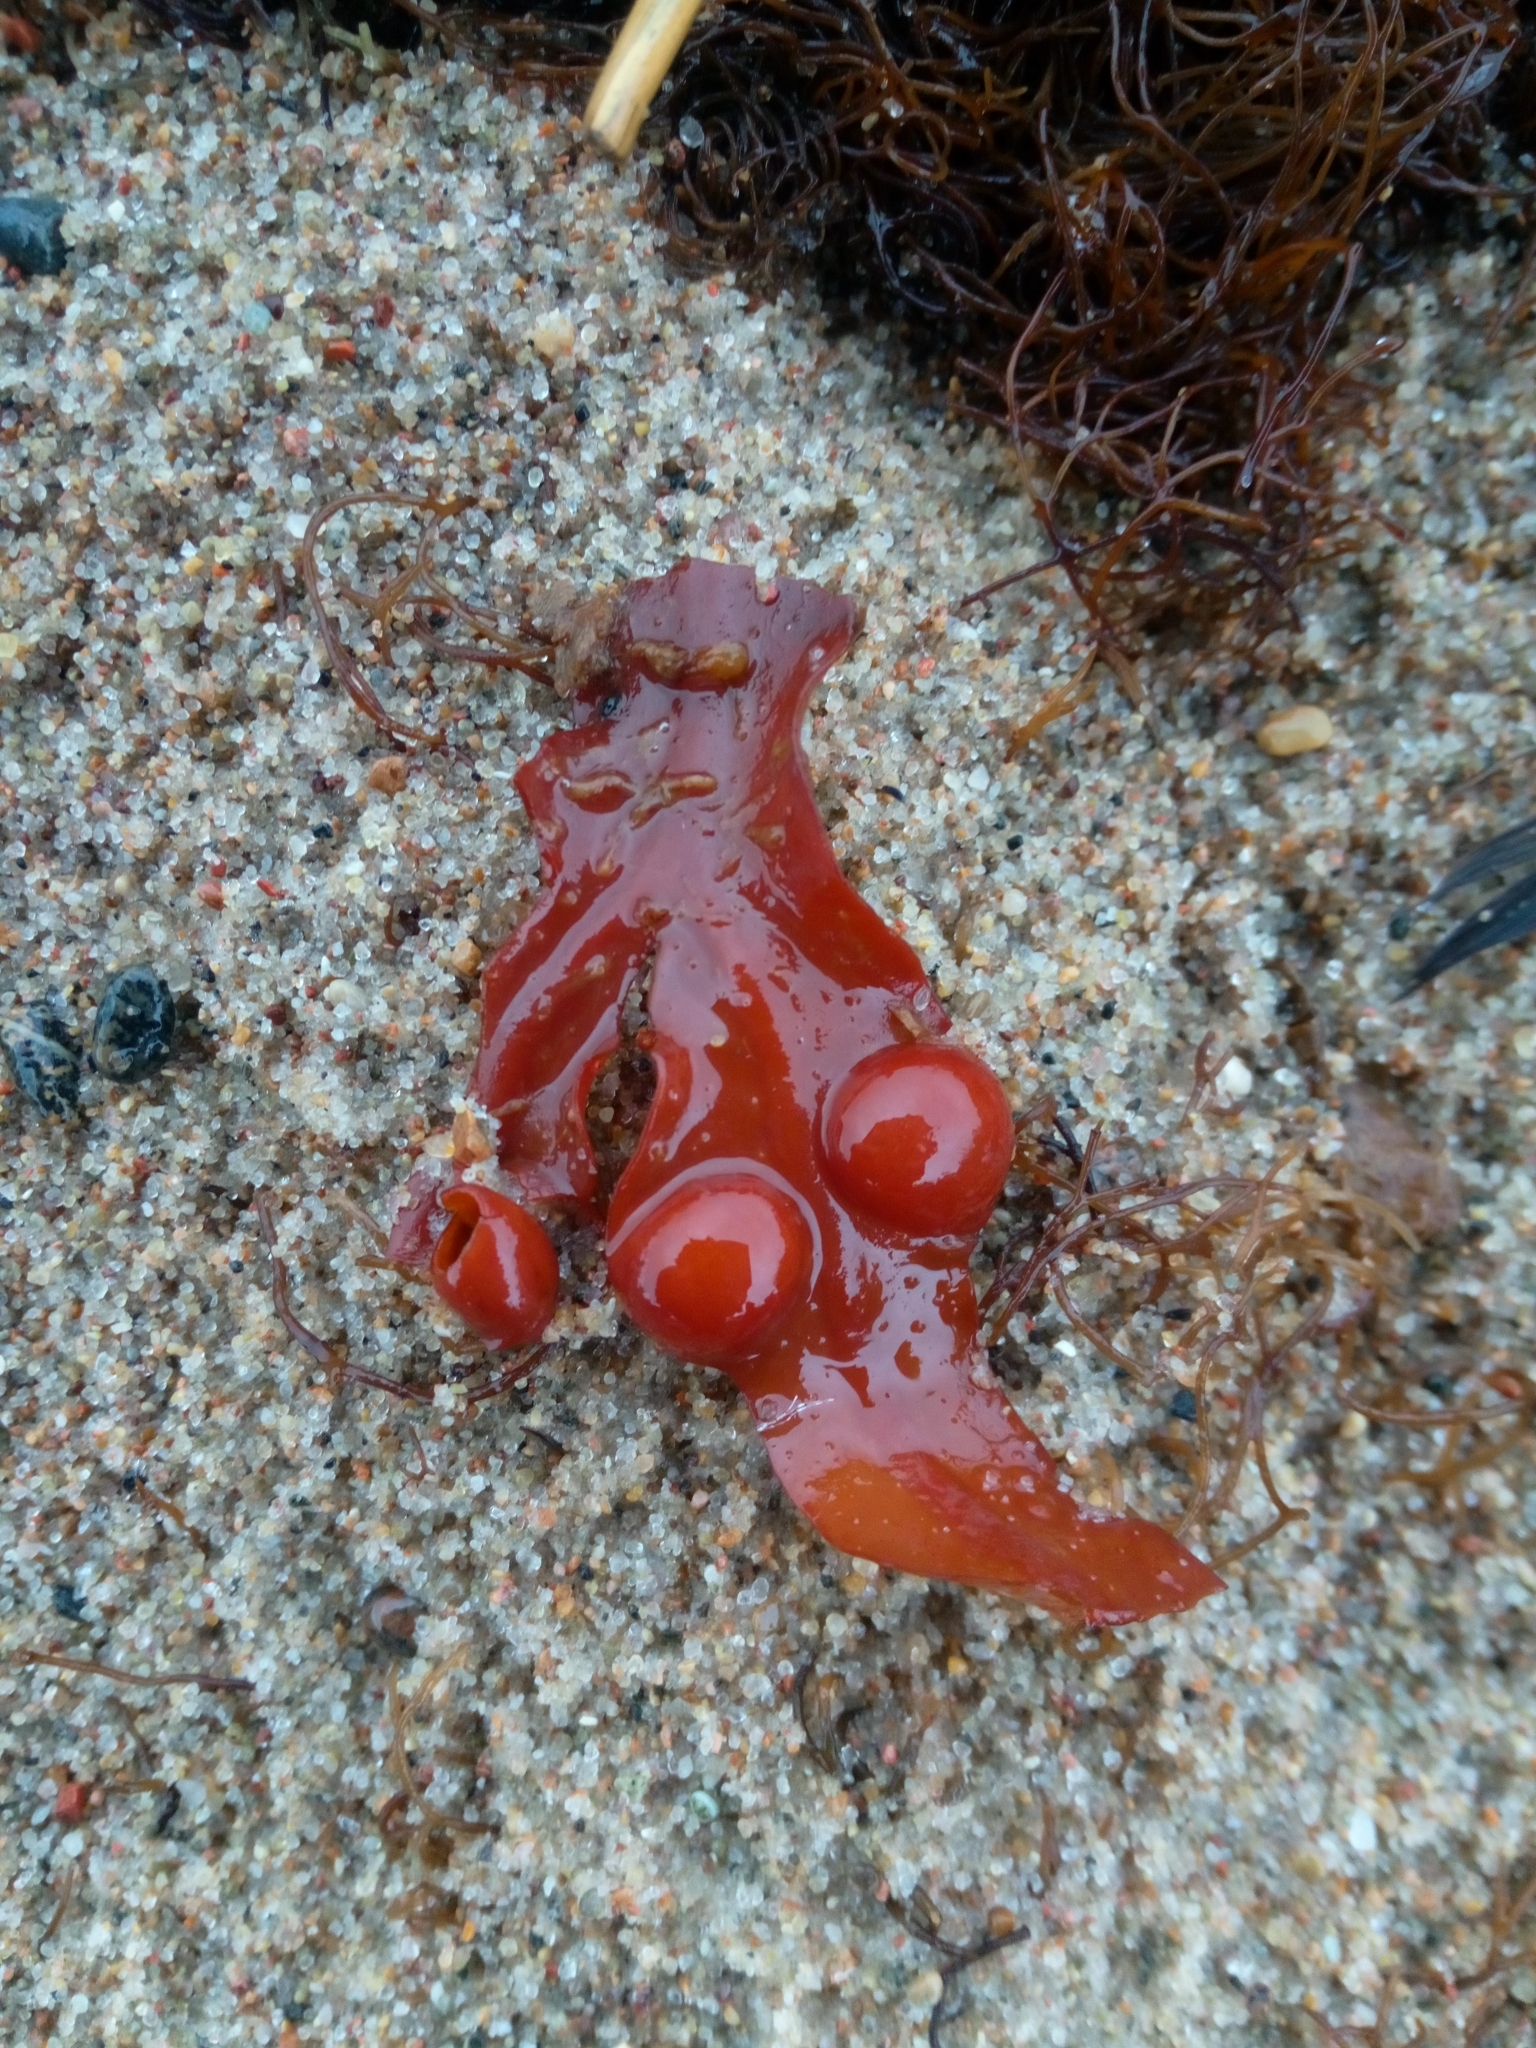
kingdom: Chromista
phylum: Ochrophyta
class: Phaeophyceae
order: Fucales
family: Fucaceae
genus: Fucus
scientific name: Fucus vesiculosus
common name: Bladder wrack
